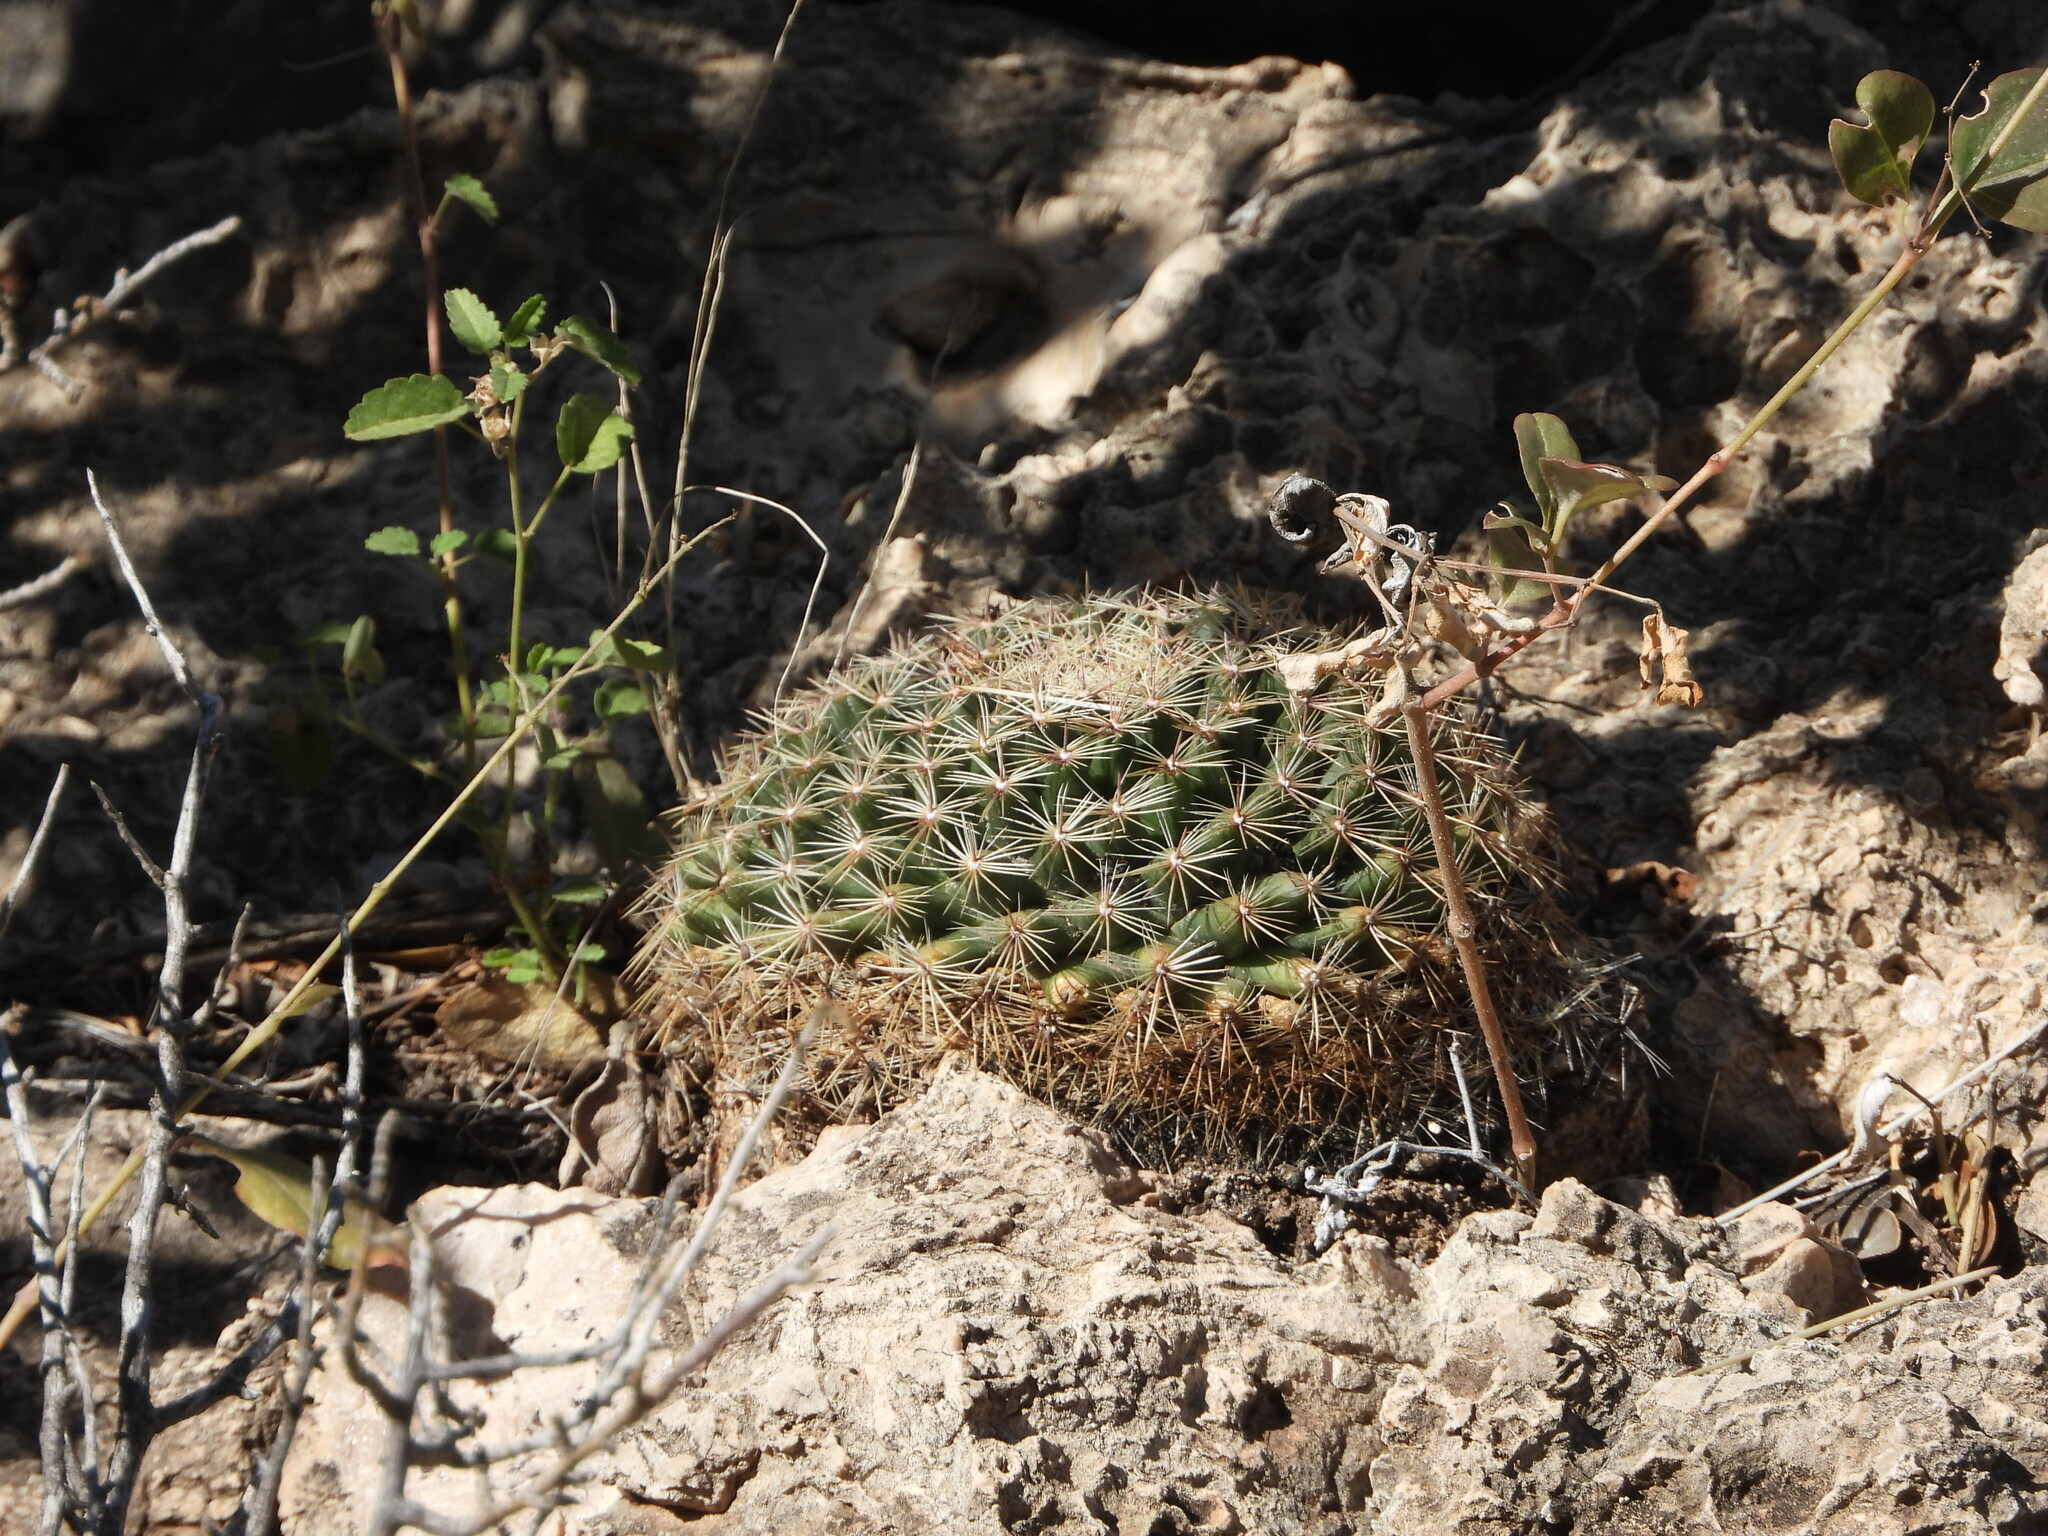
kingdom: Plantae
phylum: Tracheophyta
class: Magnoliopsida
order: Caryophyllales
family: Cactaceae
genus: Mammillaria
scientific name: Mammillaria heyderi
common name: Little nipple cactus
